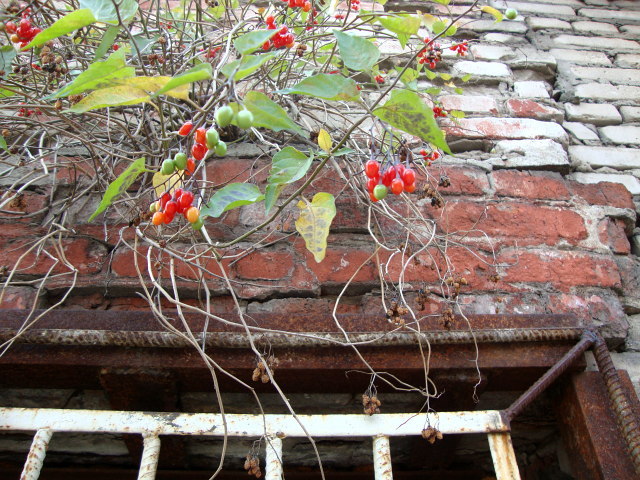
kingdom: Plantae
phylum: Tracheophyta
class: Magnoliopsida
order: Solanales
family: Solanaceae
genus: Solanum
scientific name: Solanum dulcamara
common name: Climbing nightshade
